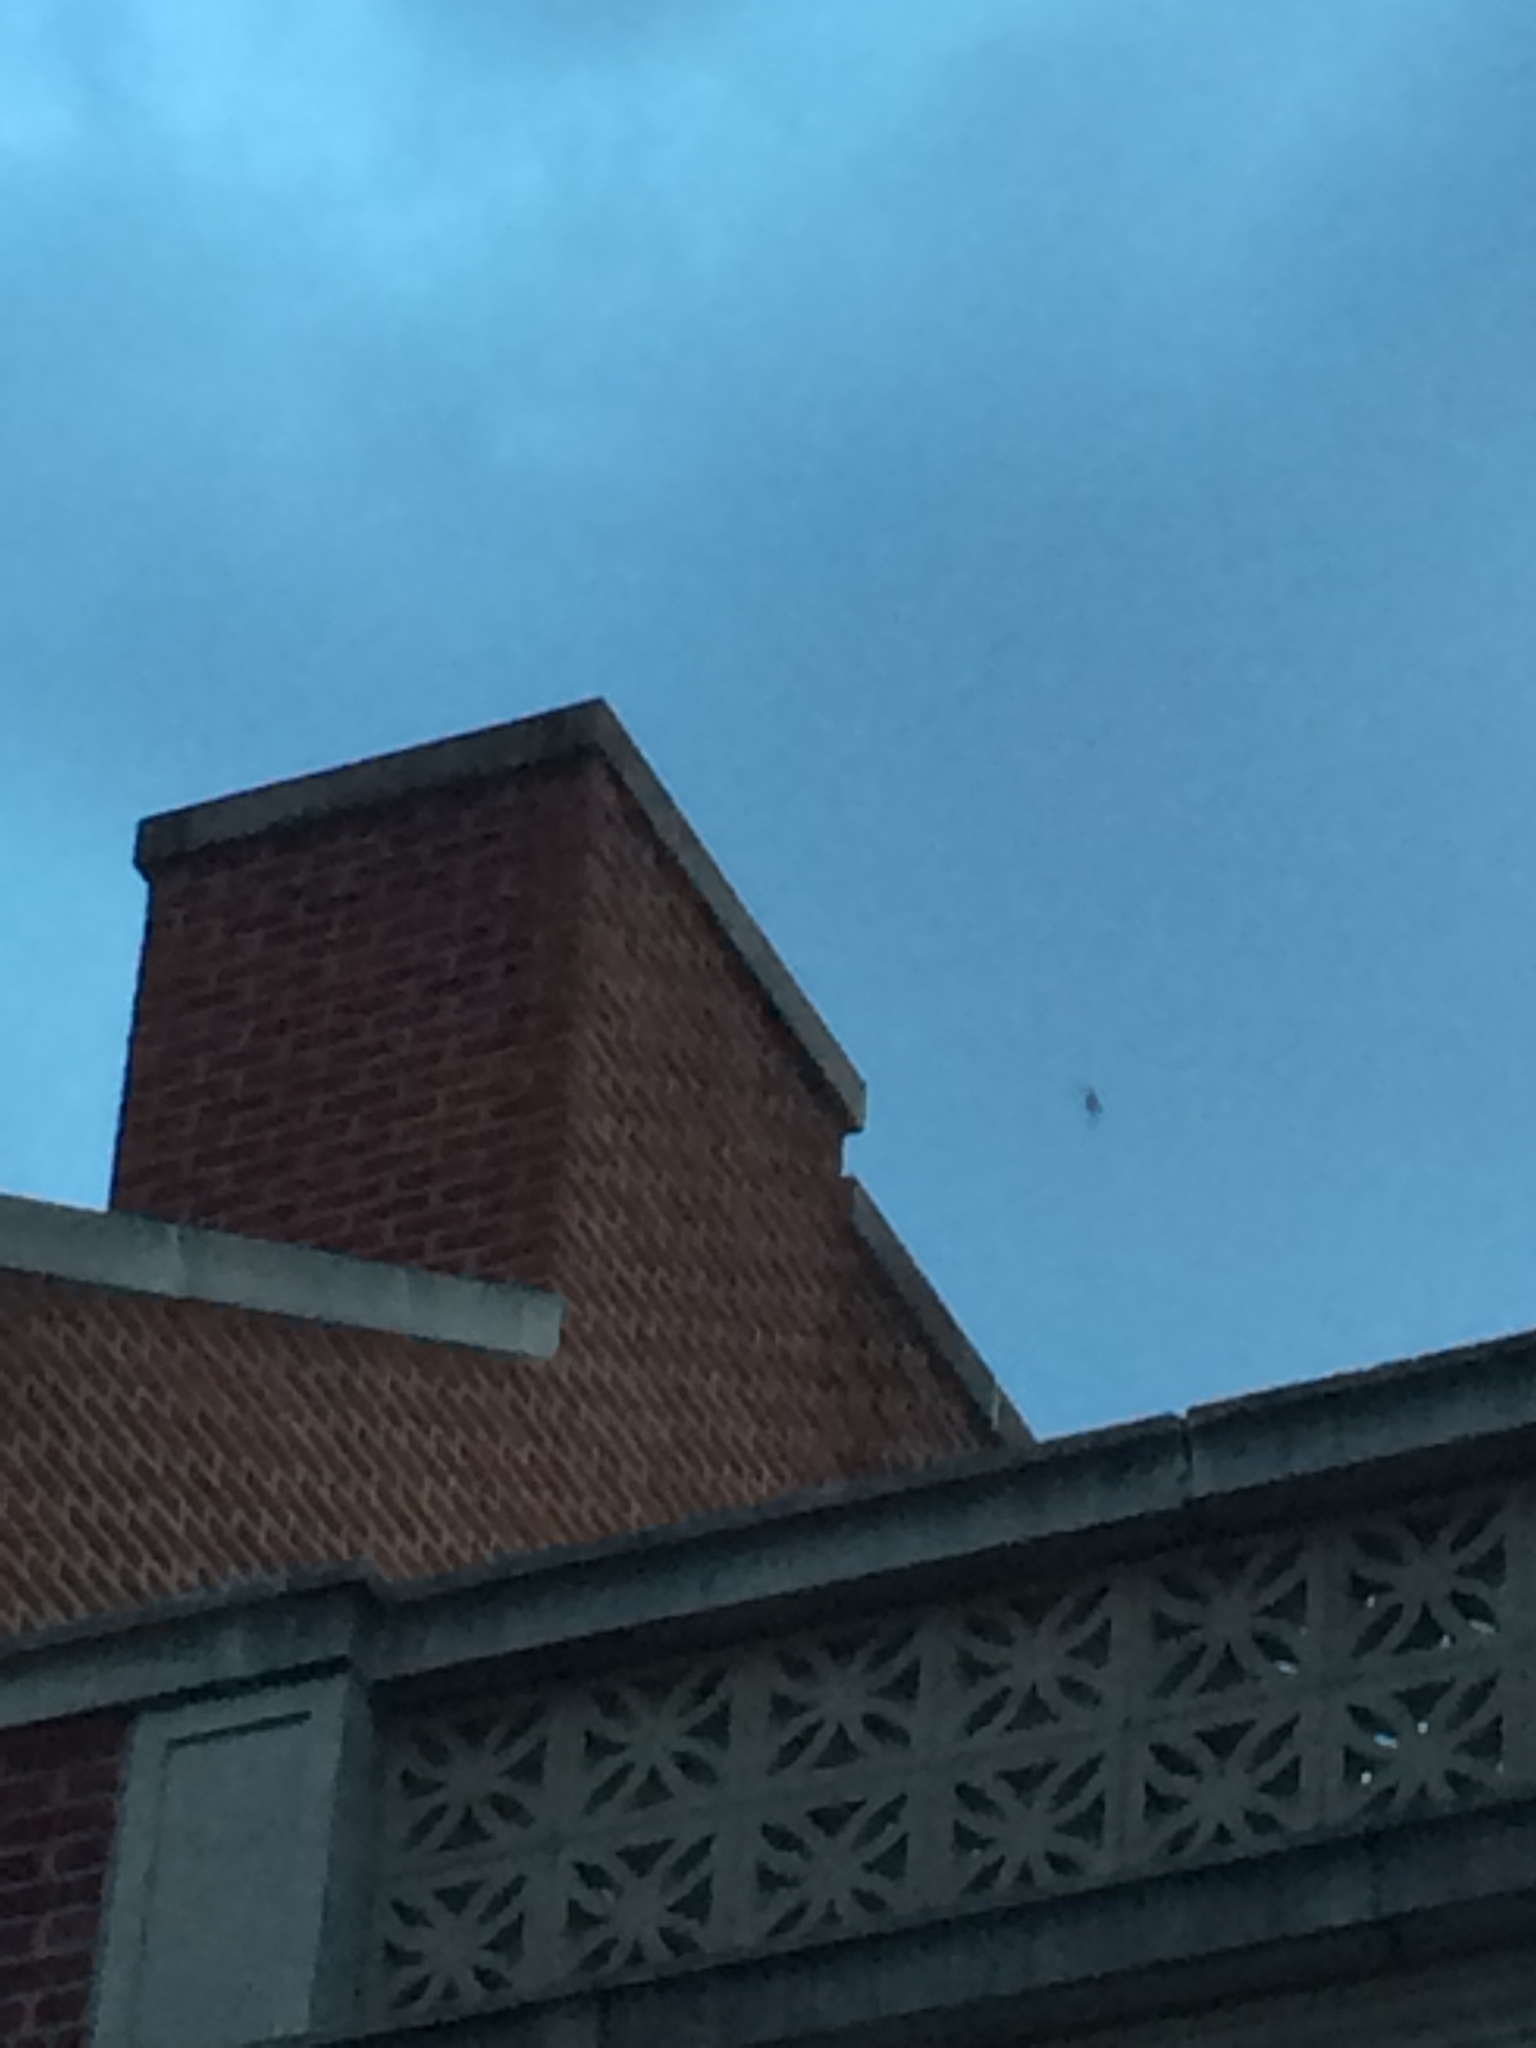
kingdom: Animalia
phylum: Chordata
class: Aves
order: Apodiformes
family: Apodidae
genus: Chaetura
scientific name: Chaetura pelagica
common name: Chimney swift
